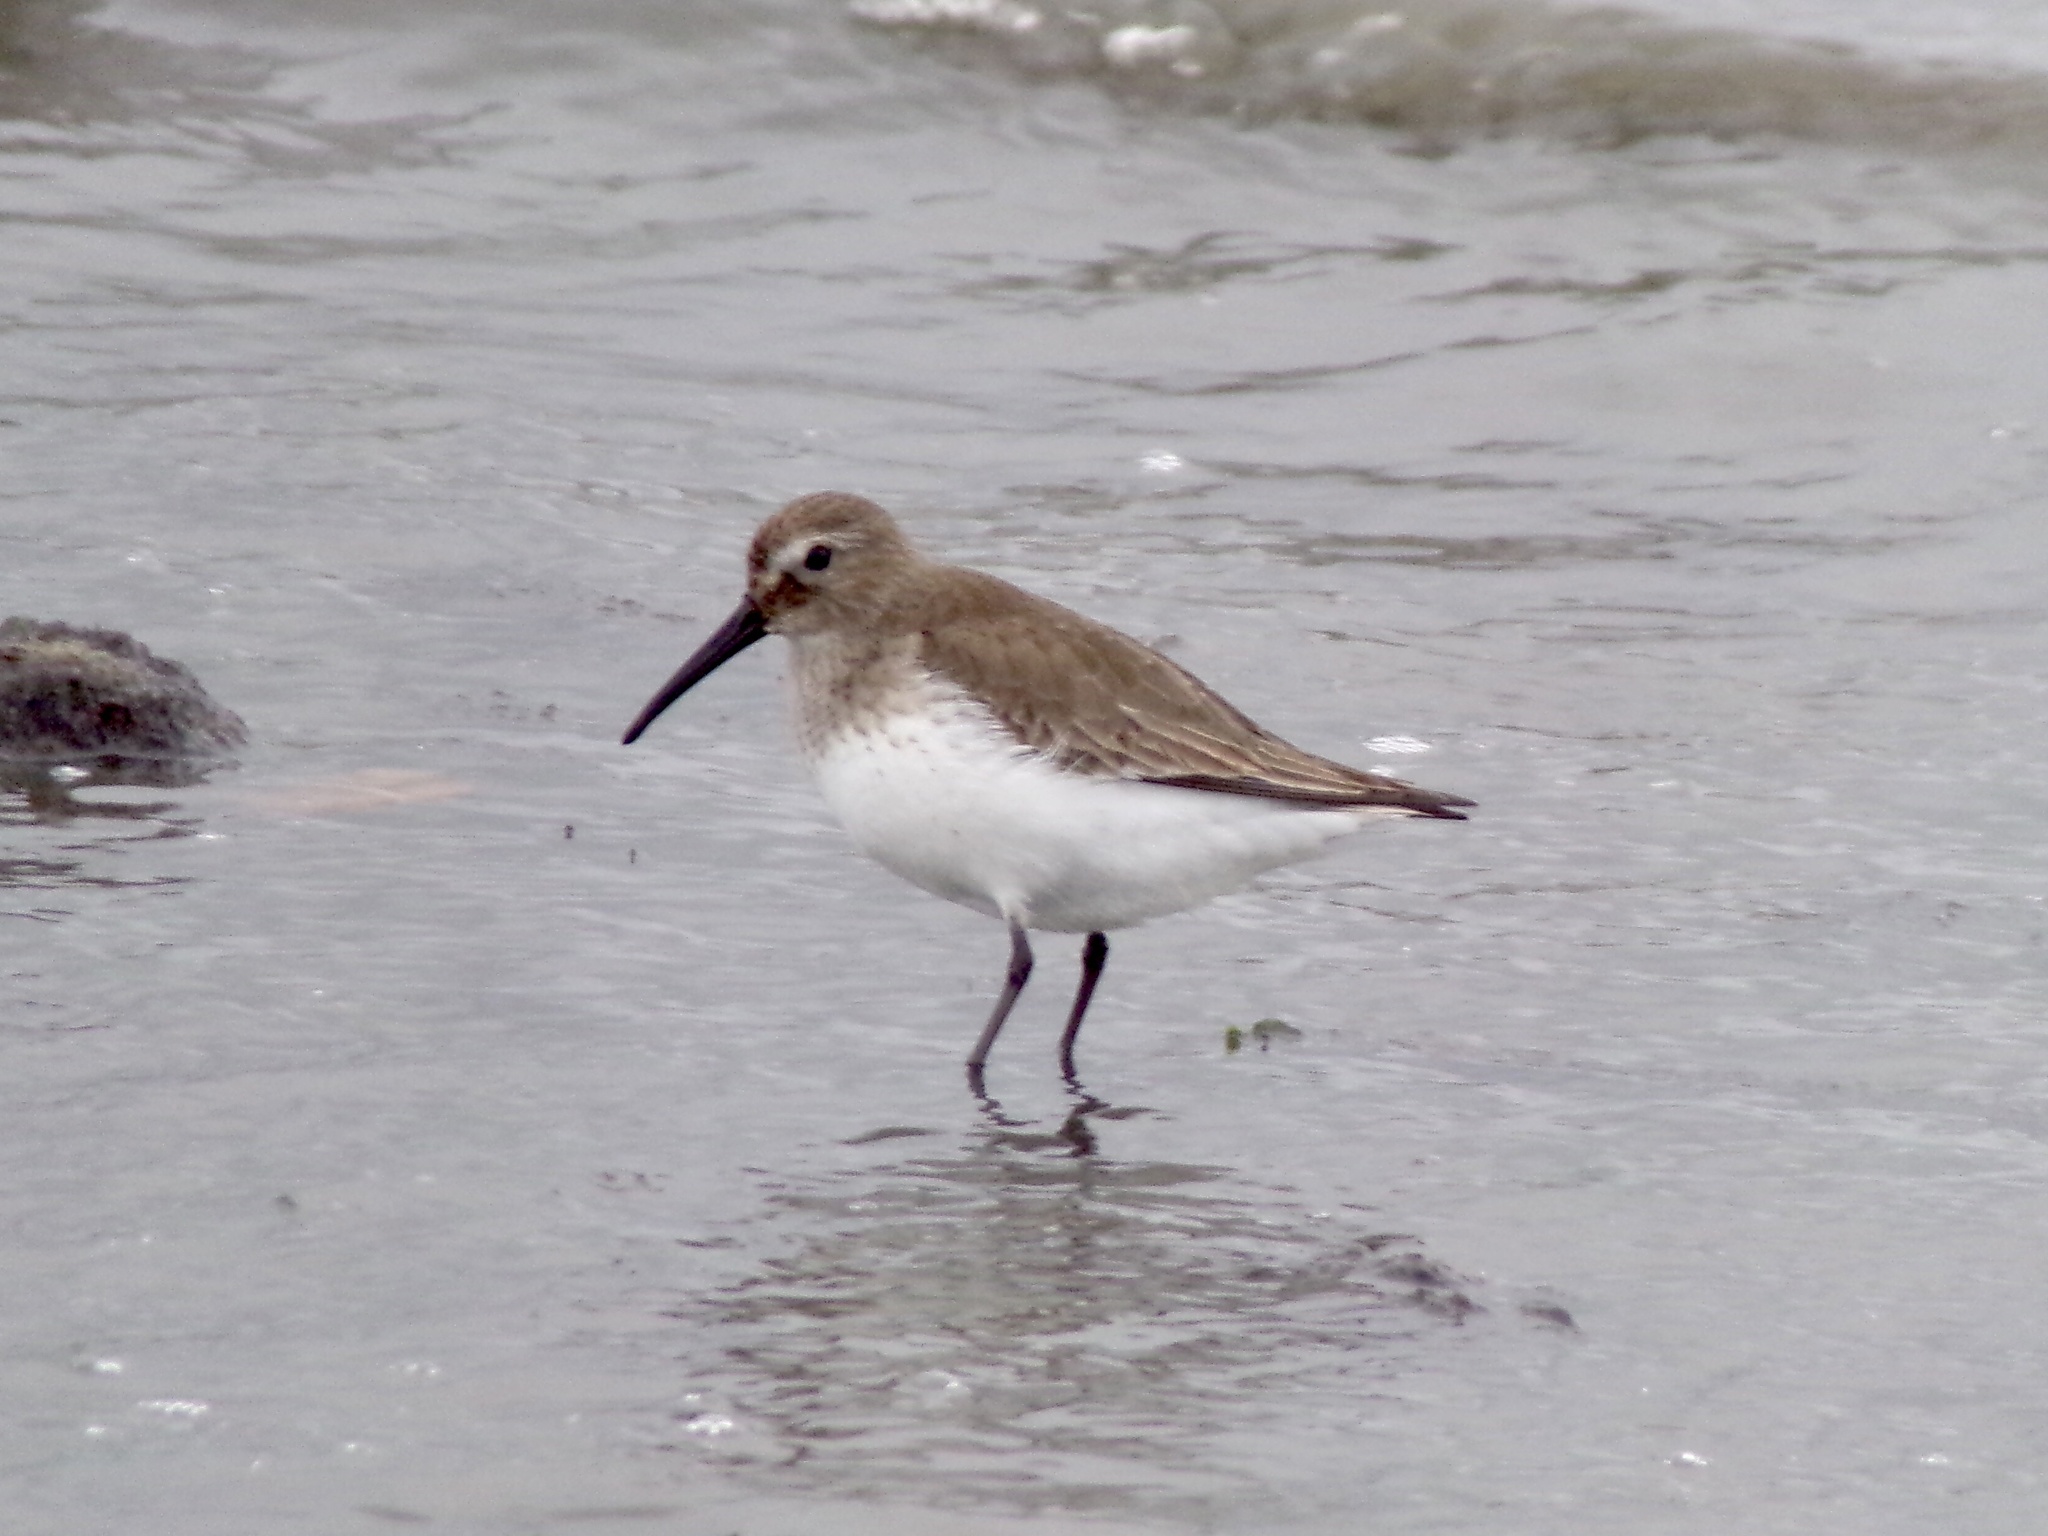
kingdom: Animalia
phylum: Chordata
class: Aves
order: Charadriiformes
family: Scolopacidae
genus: Calidris
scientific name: Calidris alpina
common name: Dunlin
